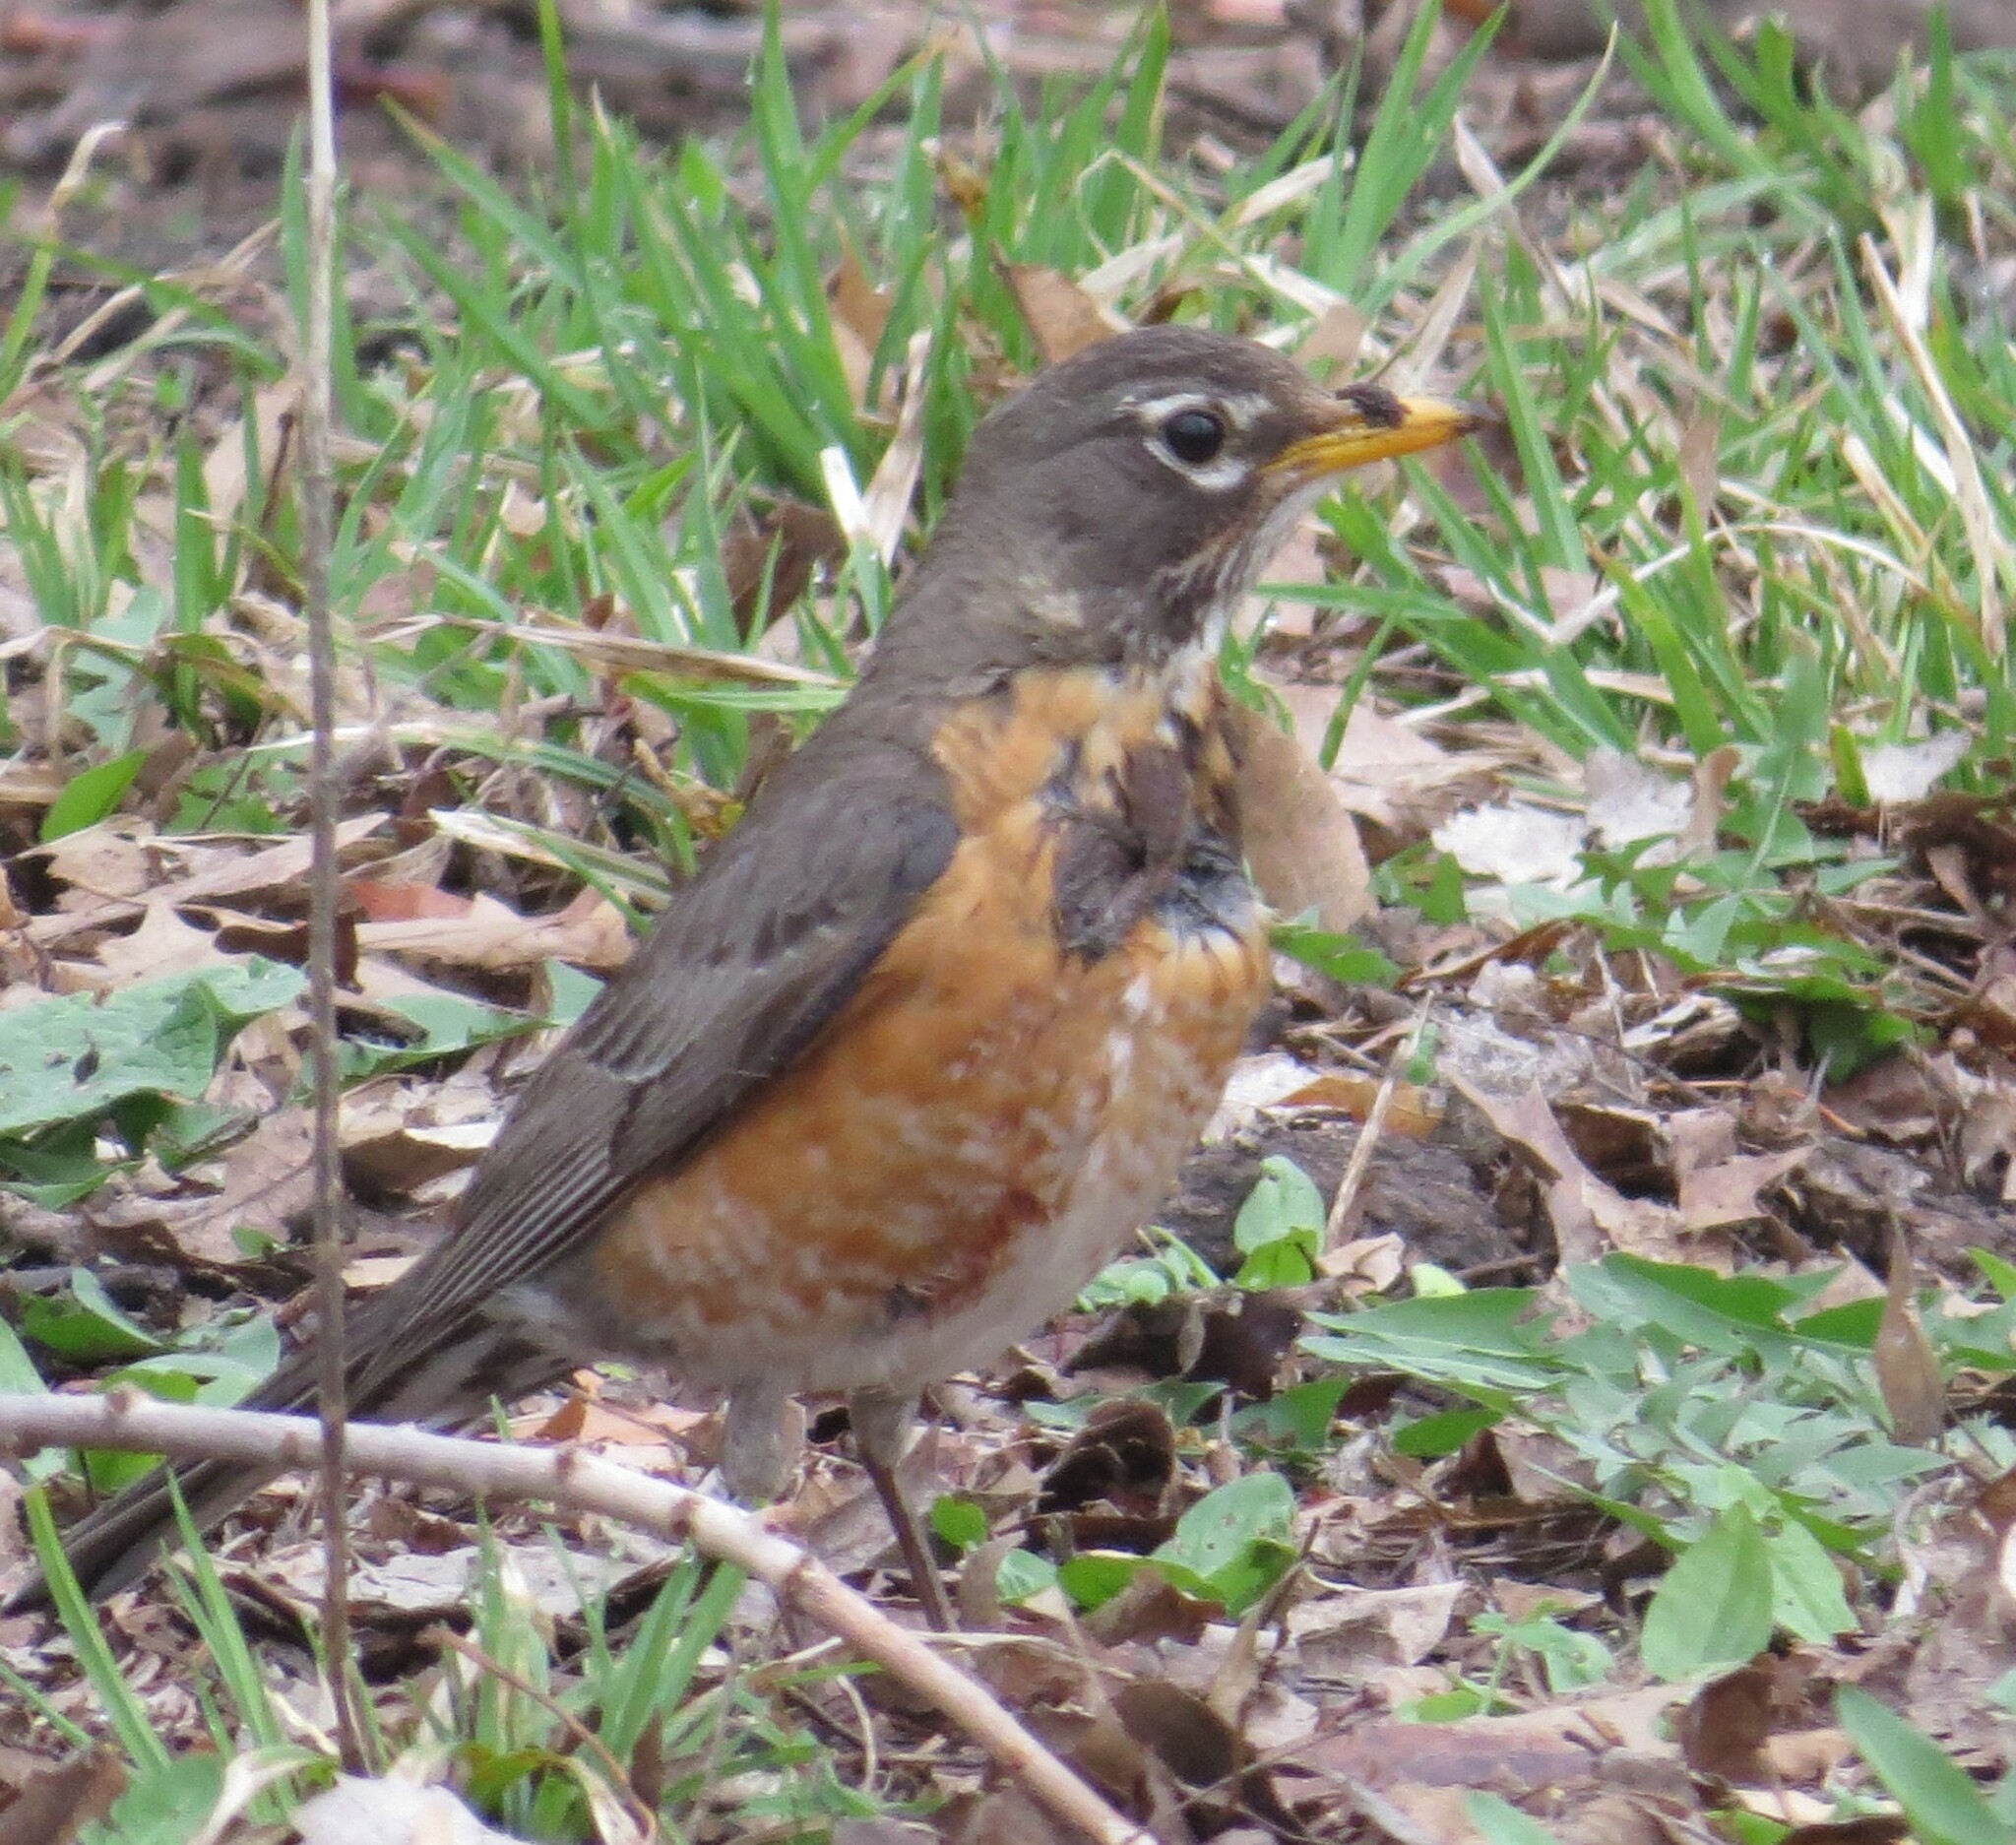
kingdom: Animalia
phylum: Chordata
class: Aves
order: Passeriformes
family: Turdidae
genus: Turdus
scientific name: Turdus migratorius
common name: American robin
